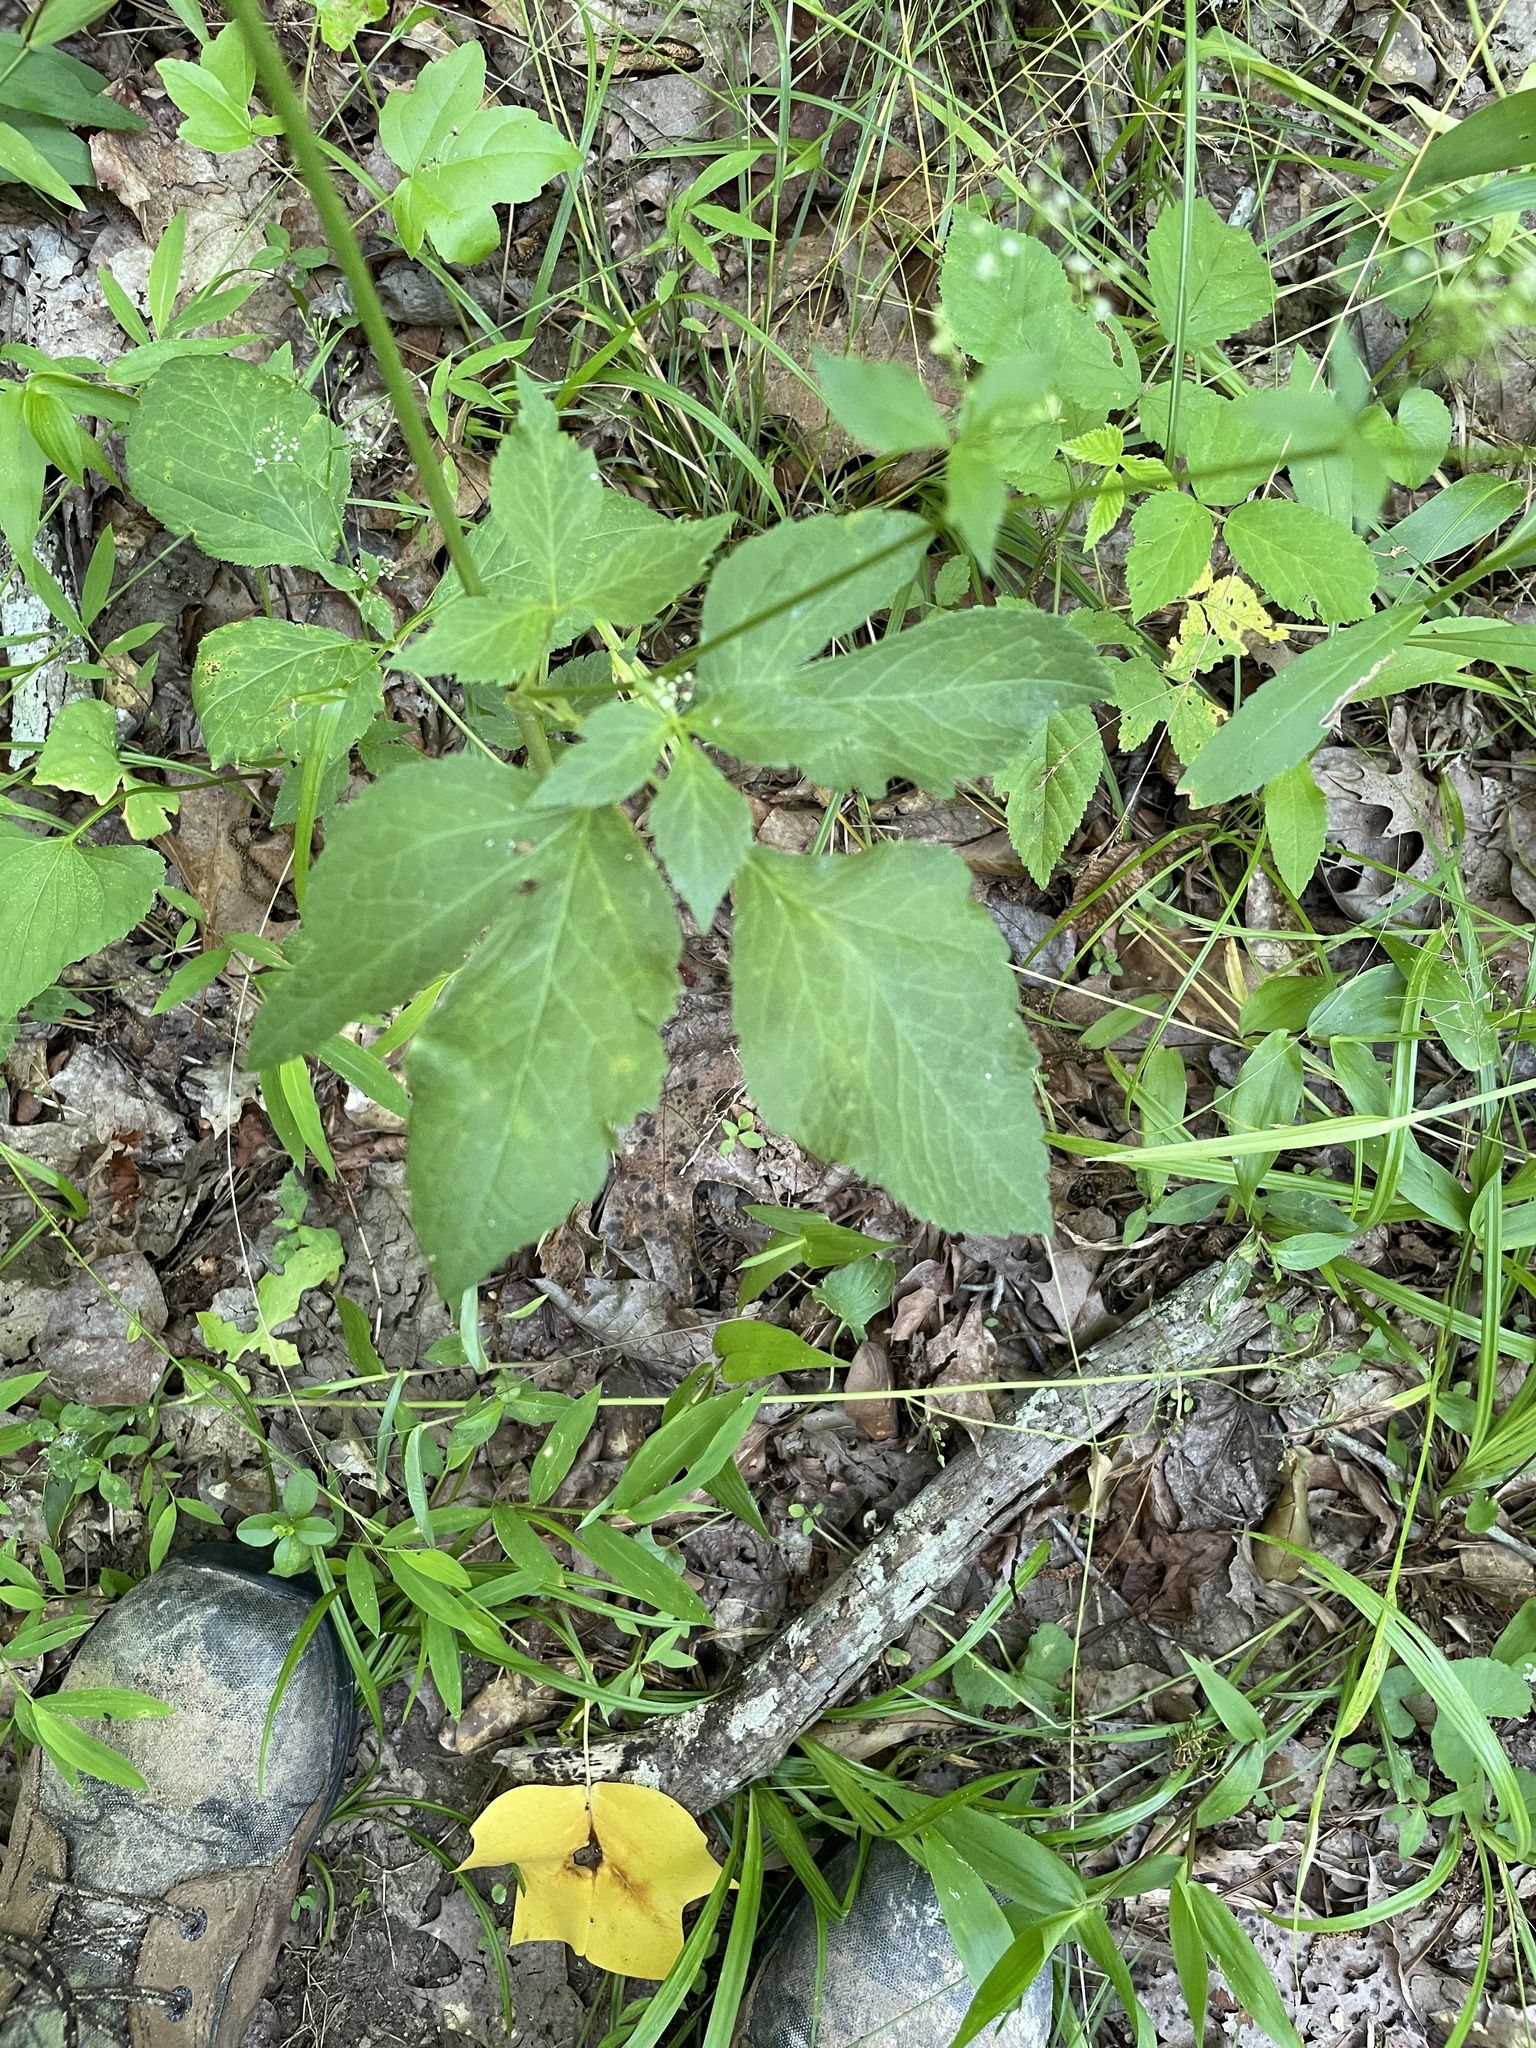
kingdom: Plantae
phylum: Tracheophyta
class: Magnoliopsida
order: Apiales
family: Apiaceae
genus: Cryptotaenia
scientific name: Cryptotaenia canadensis
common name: Honewort
